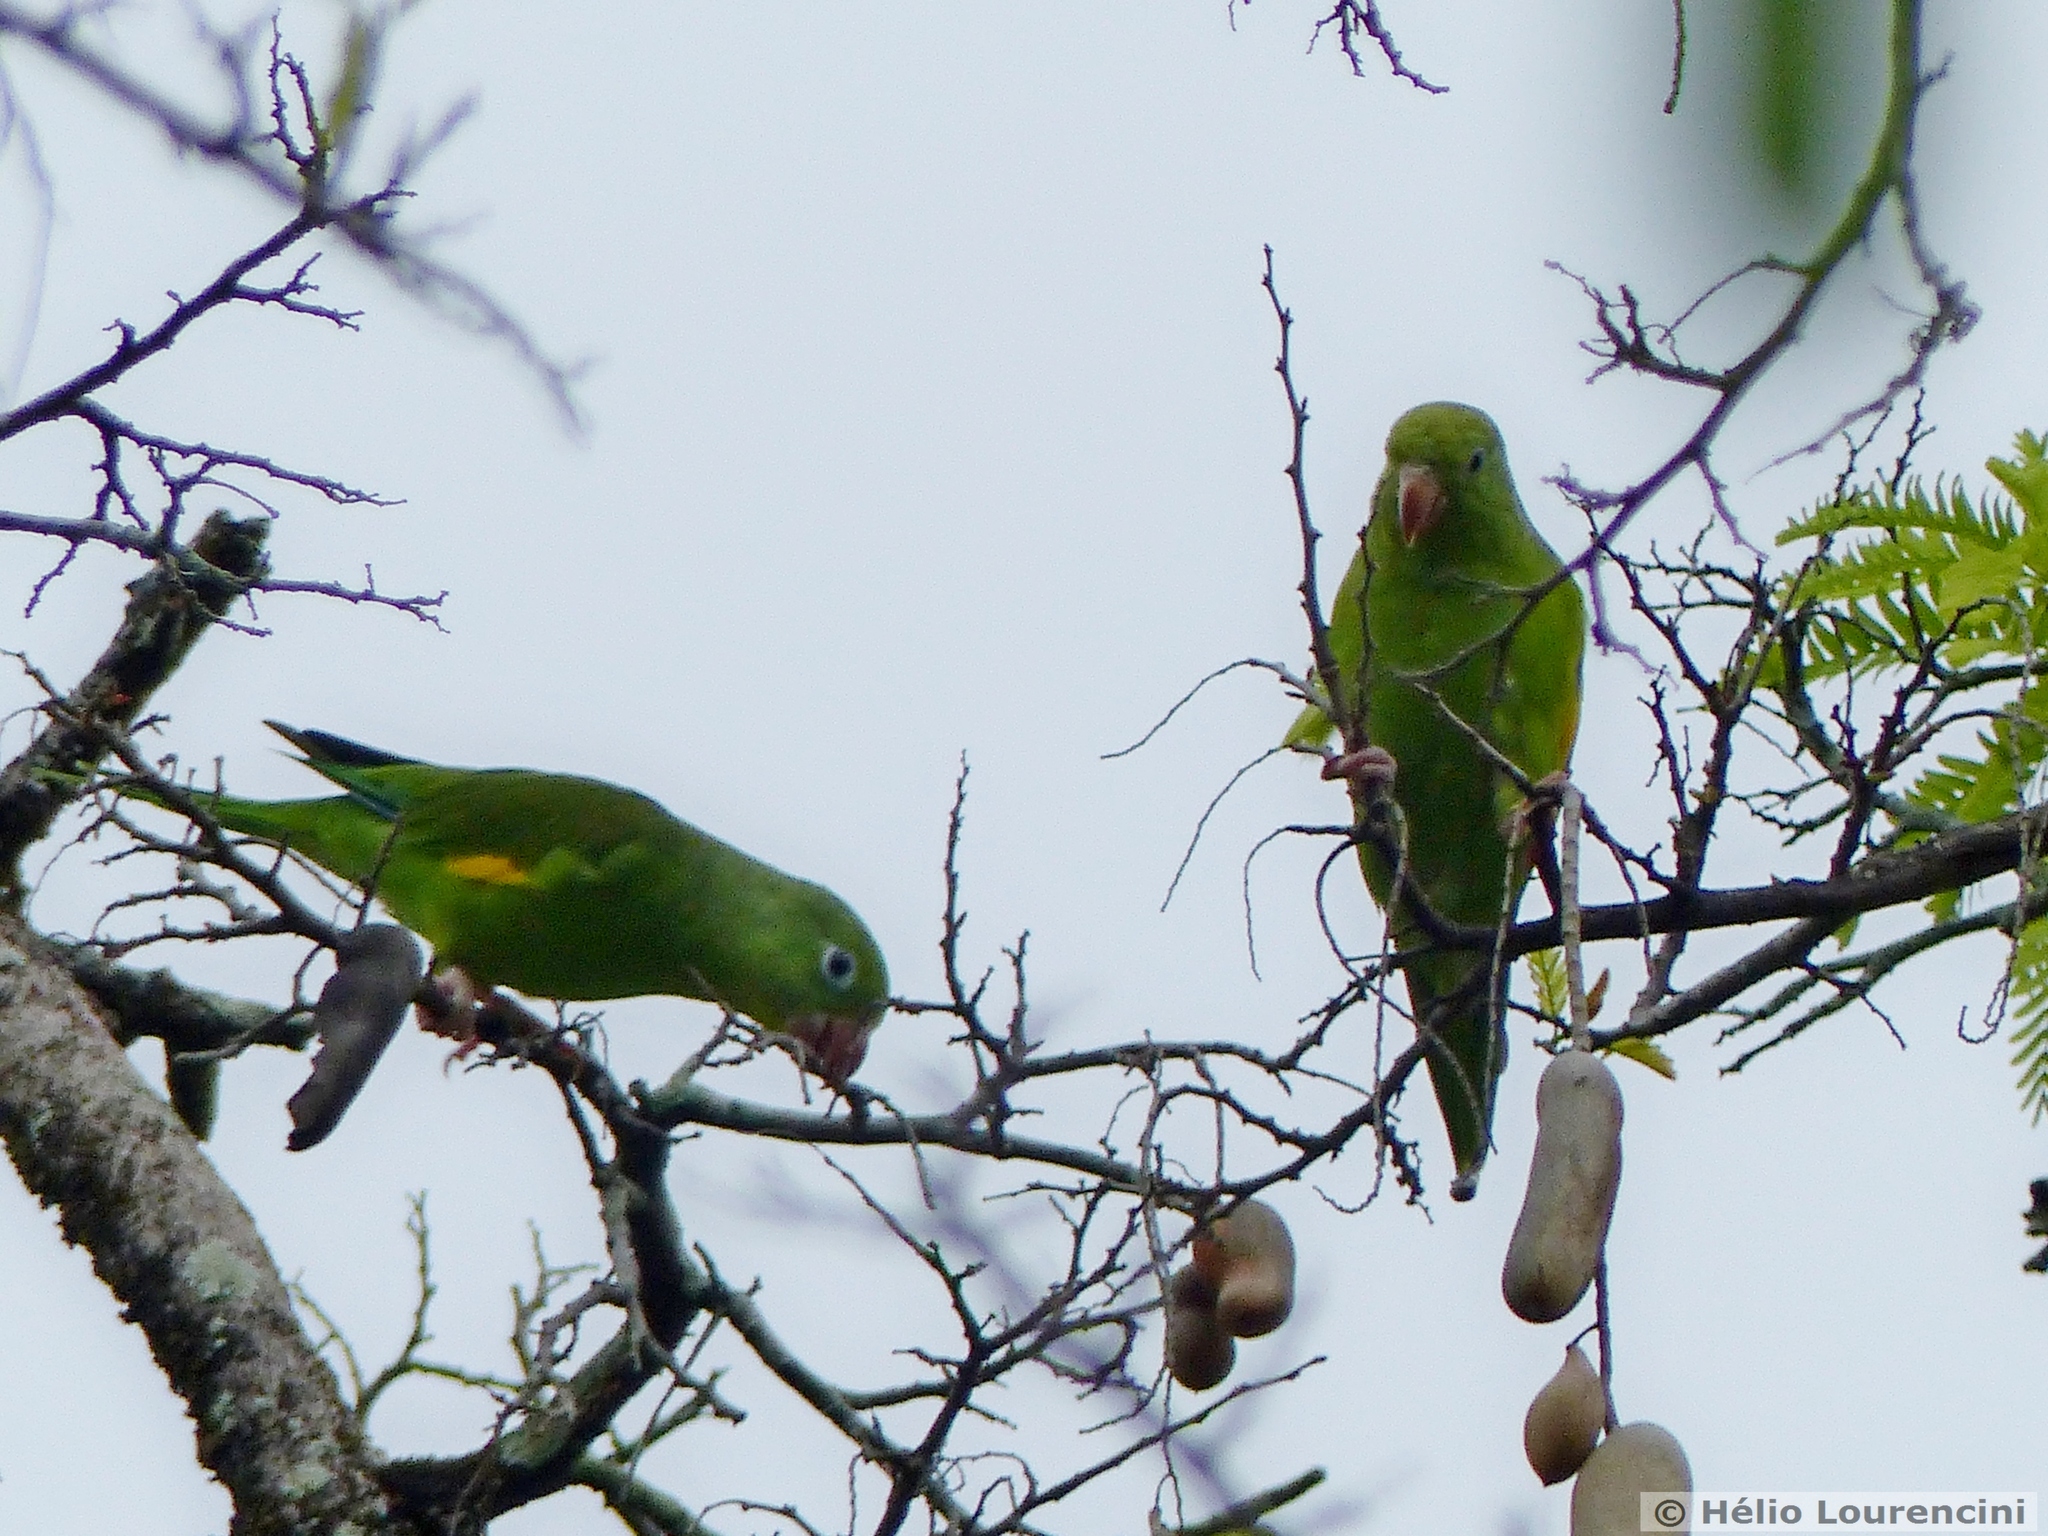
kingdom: Animalia
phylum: Chordata
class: Aves
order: Psittaciformes
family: Psittacidae
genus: Brotogeris
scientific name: Brotogeris chiriri
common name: Yellow-chevroned parakeet
